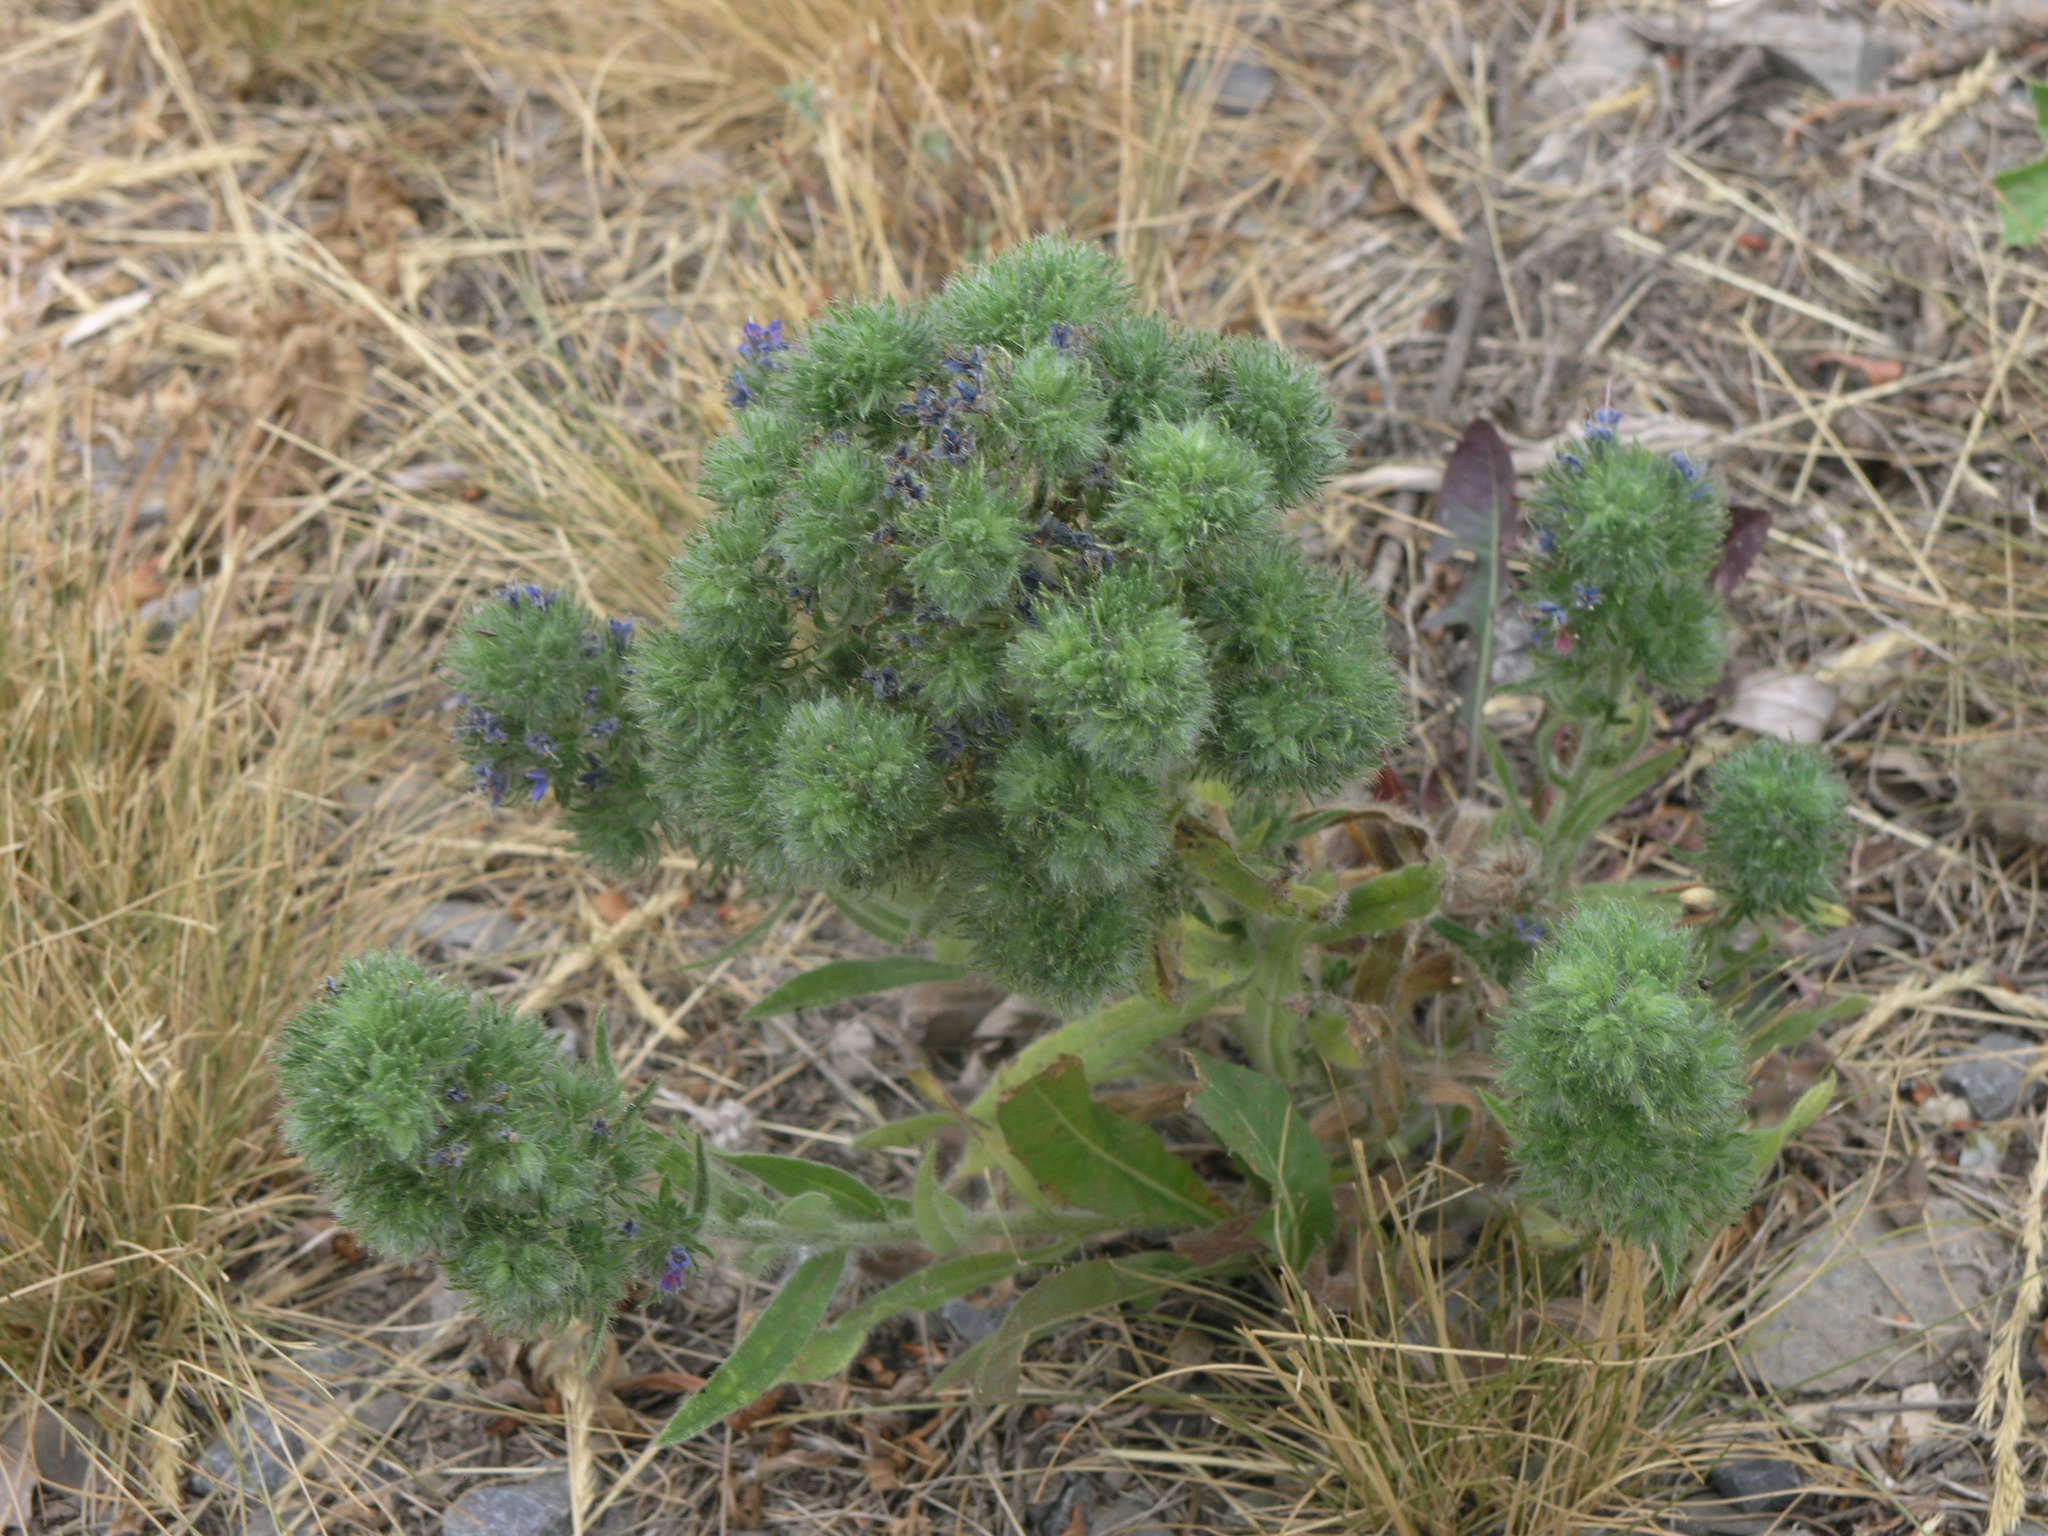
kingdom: Plantae
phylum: Tracheophyta
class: Magnoliopsida
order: Boraginales
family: Boraginaceae
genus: Echium
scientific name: Echium vulgare
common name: Common viper's bugloss
